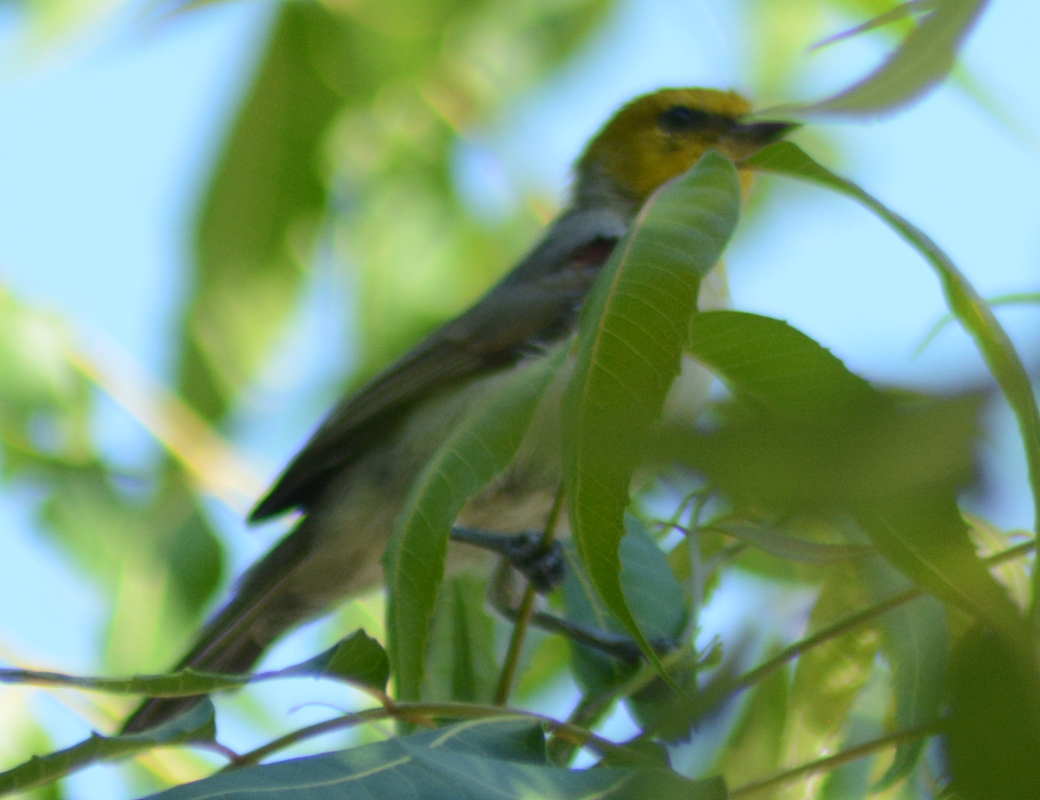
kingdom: Animalia
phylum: Chordata
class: Aves
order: Passeriformes
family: Remizidae
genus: Auriparus
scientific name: Auriparus flaviceps
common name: Verdin
